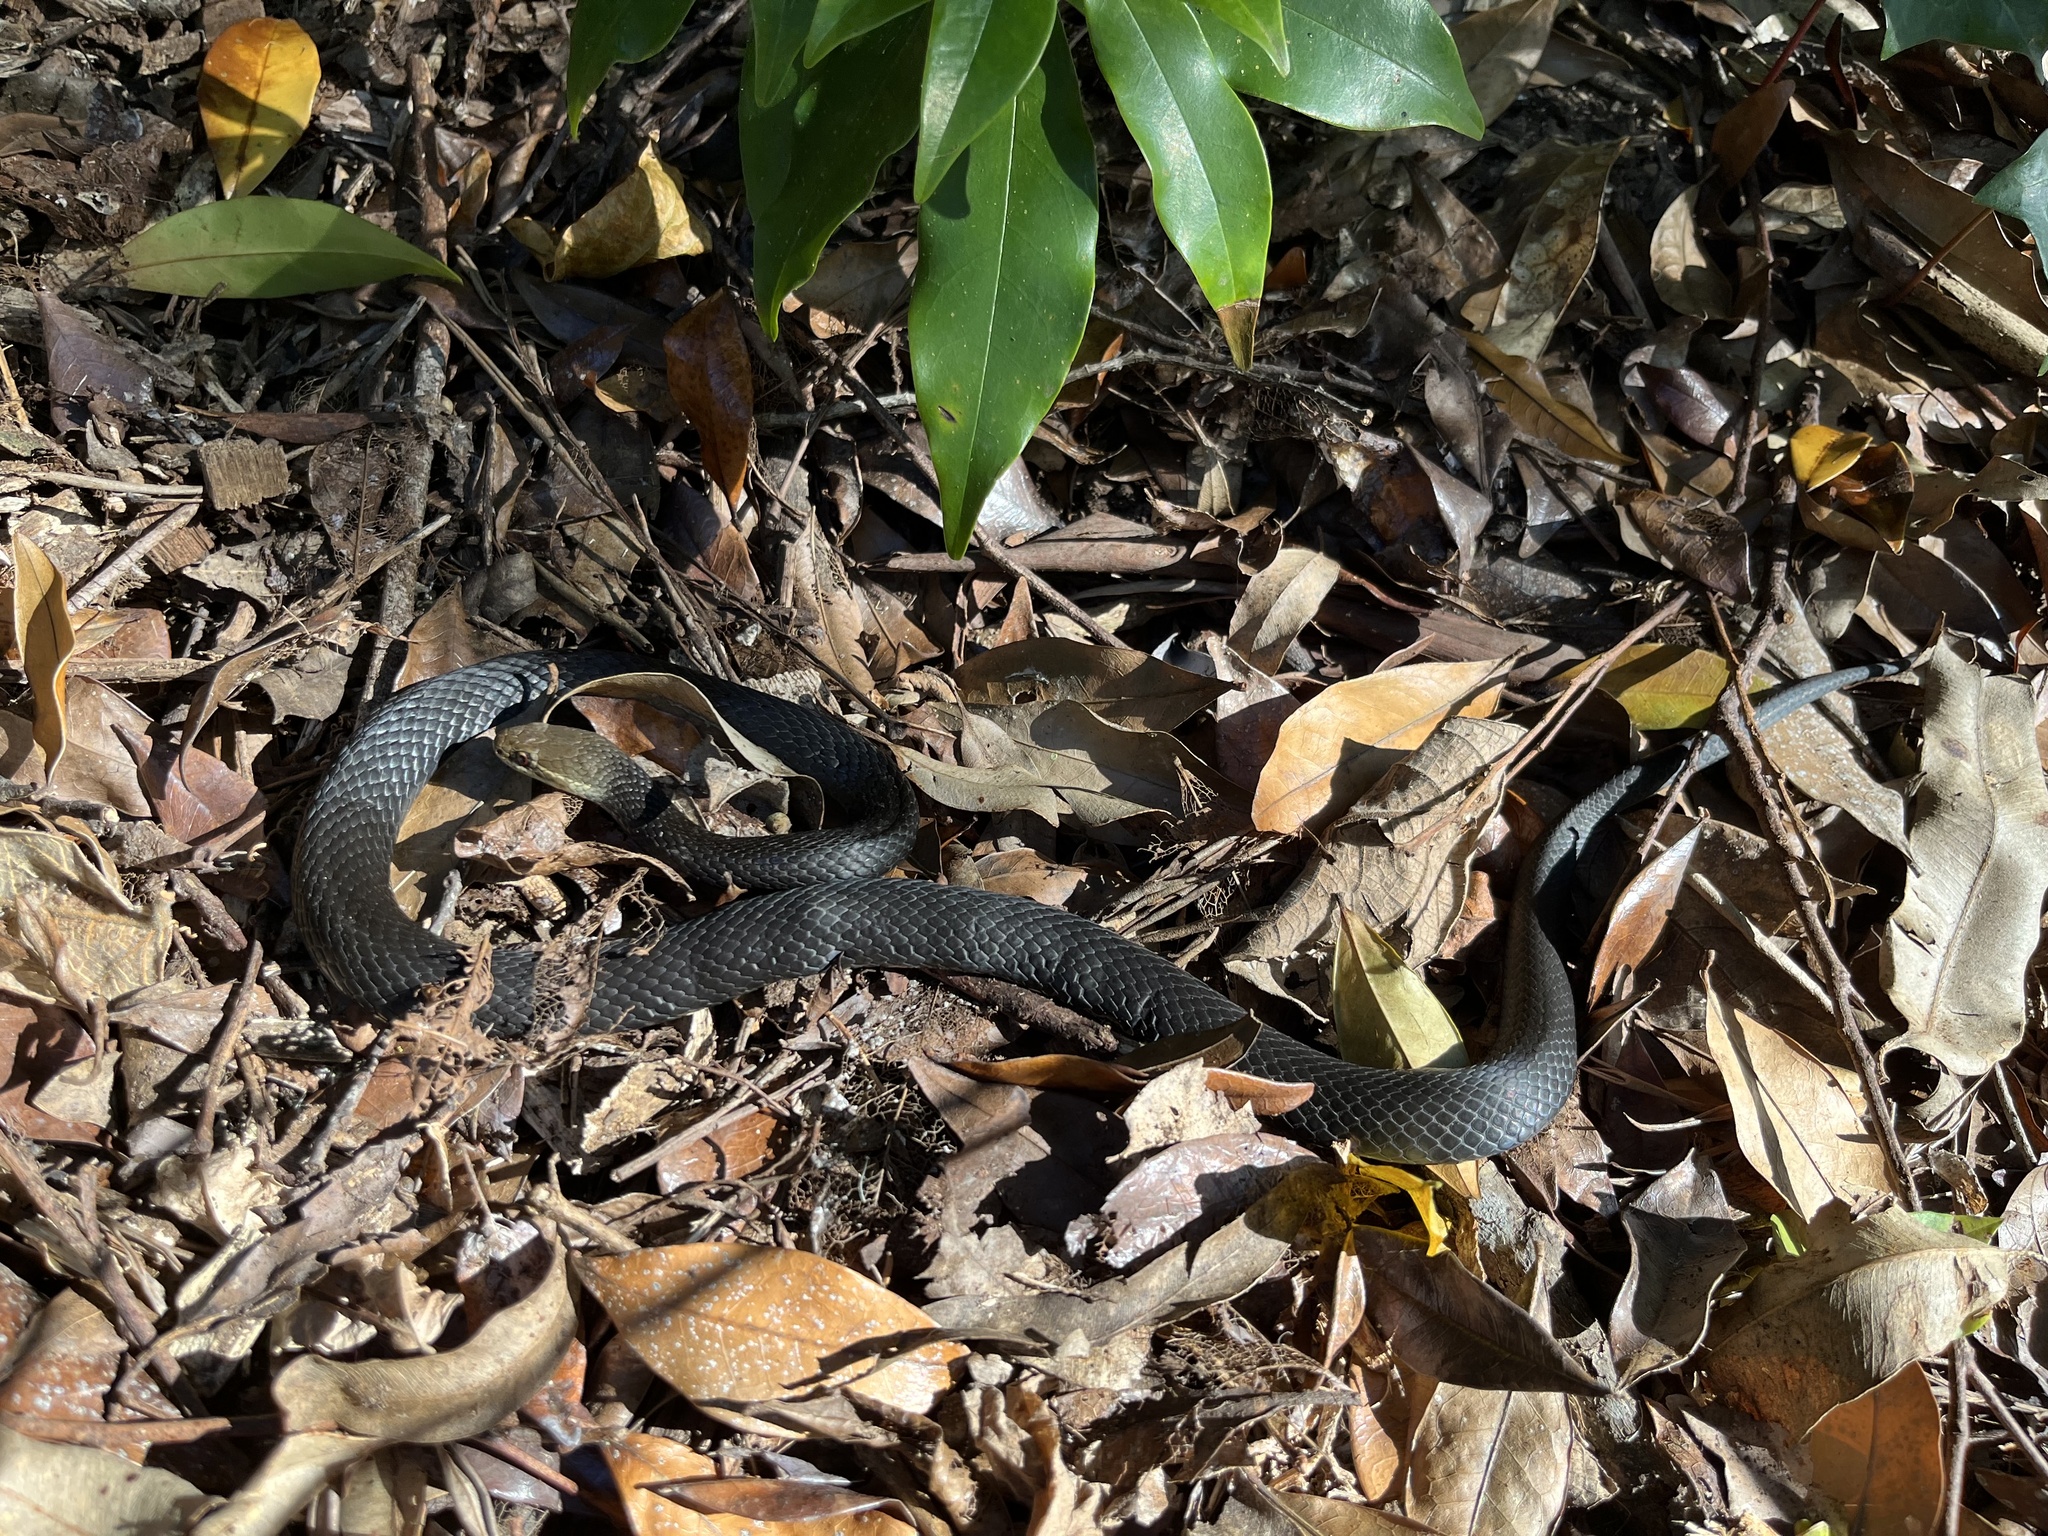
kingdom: Animalia
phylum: Chordata
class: Squamata
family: Elapidae
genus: Hemiaspis
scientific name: Hemiaspis signata
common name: Black-bellied swamp snake
